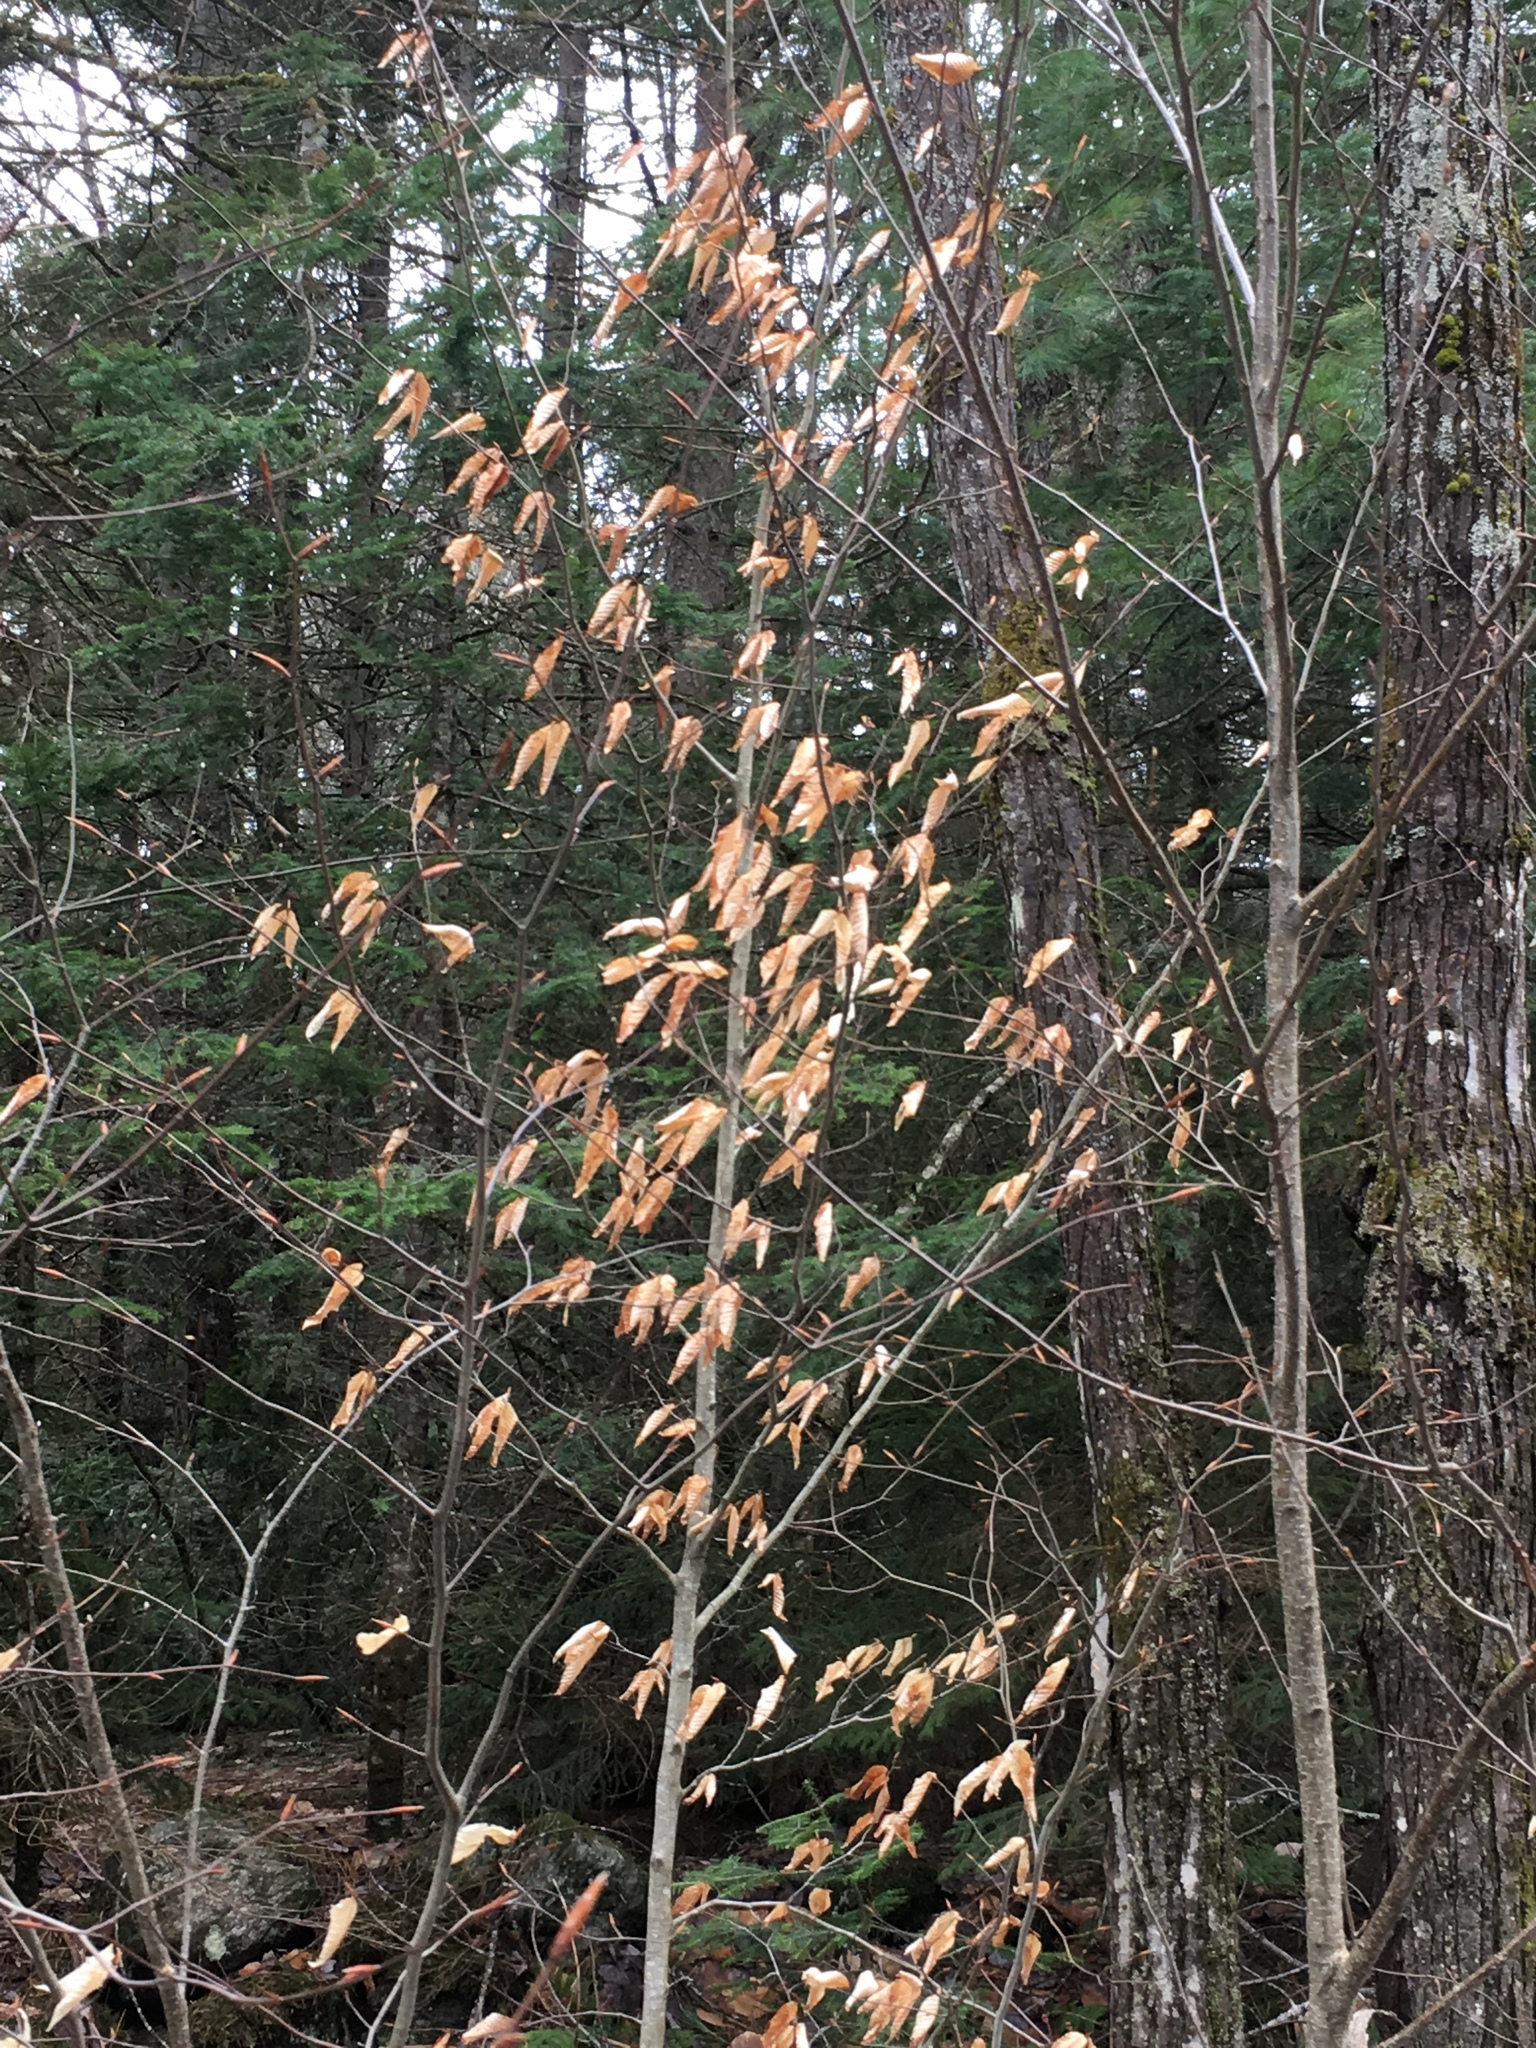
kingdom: Plantae
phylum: Tracheophyta
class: Magnoliopsida
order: Fagales
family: Fagaceae
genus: Fagus
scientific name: Fagus grandifolia
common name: American beech
